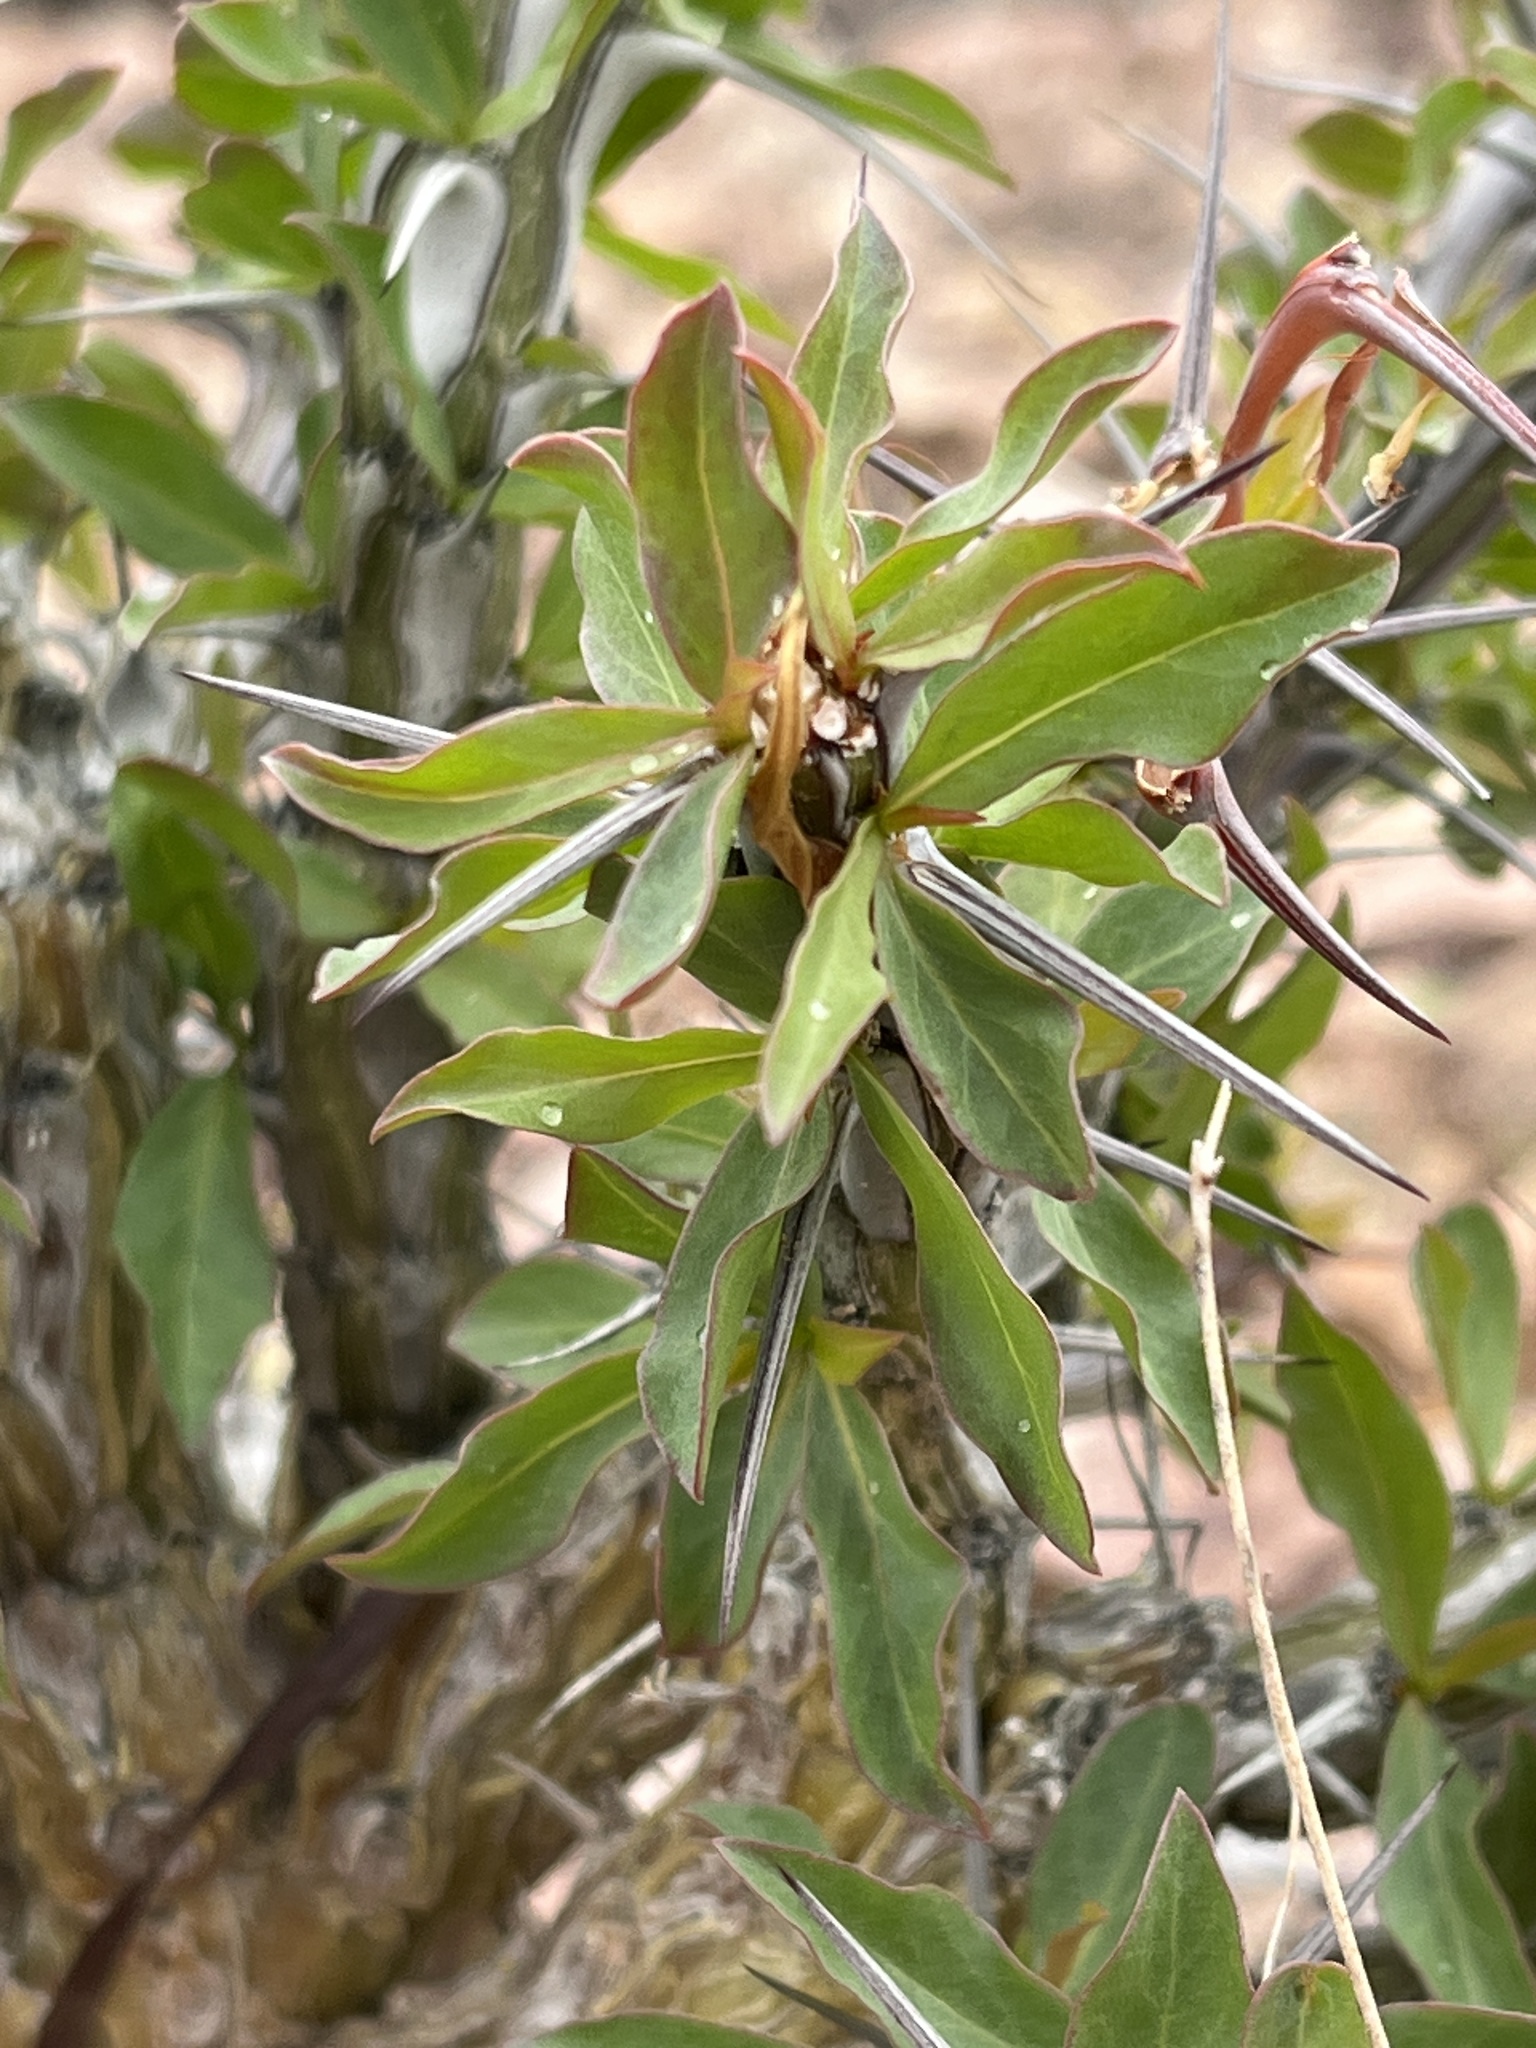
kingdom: Plantae
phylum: Tracheophyta
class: Magnoliopsida
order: Ericales
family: Fouquieriaceae
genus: Fouquieria
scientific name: Fouquieria splendens
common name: Vine-cactus
